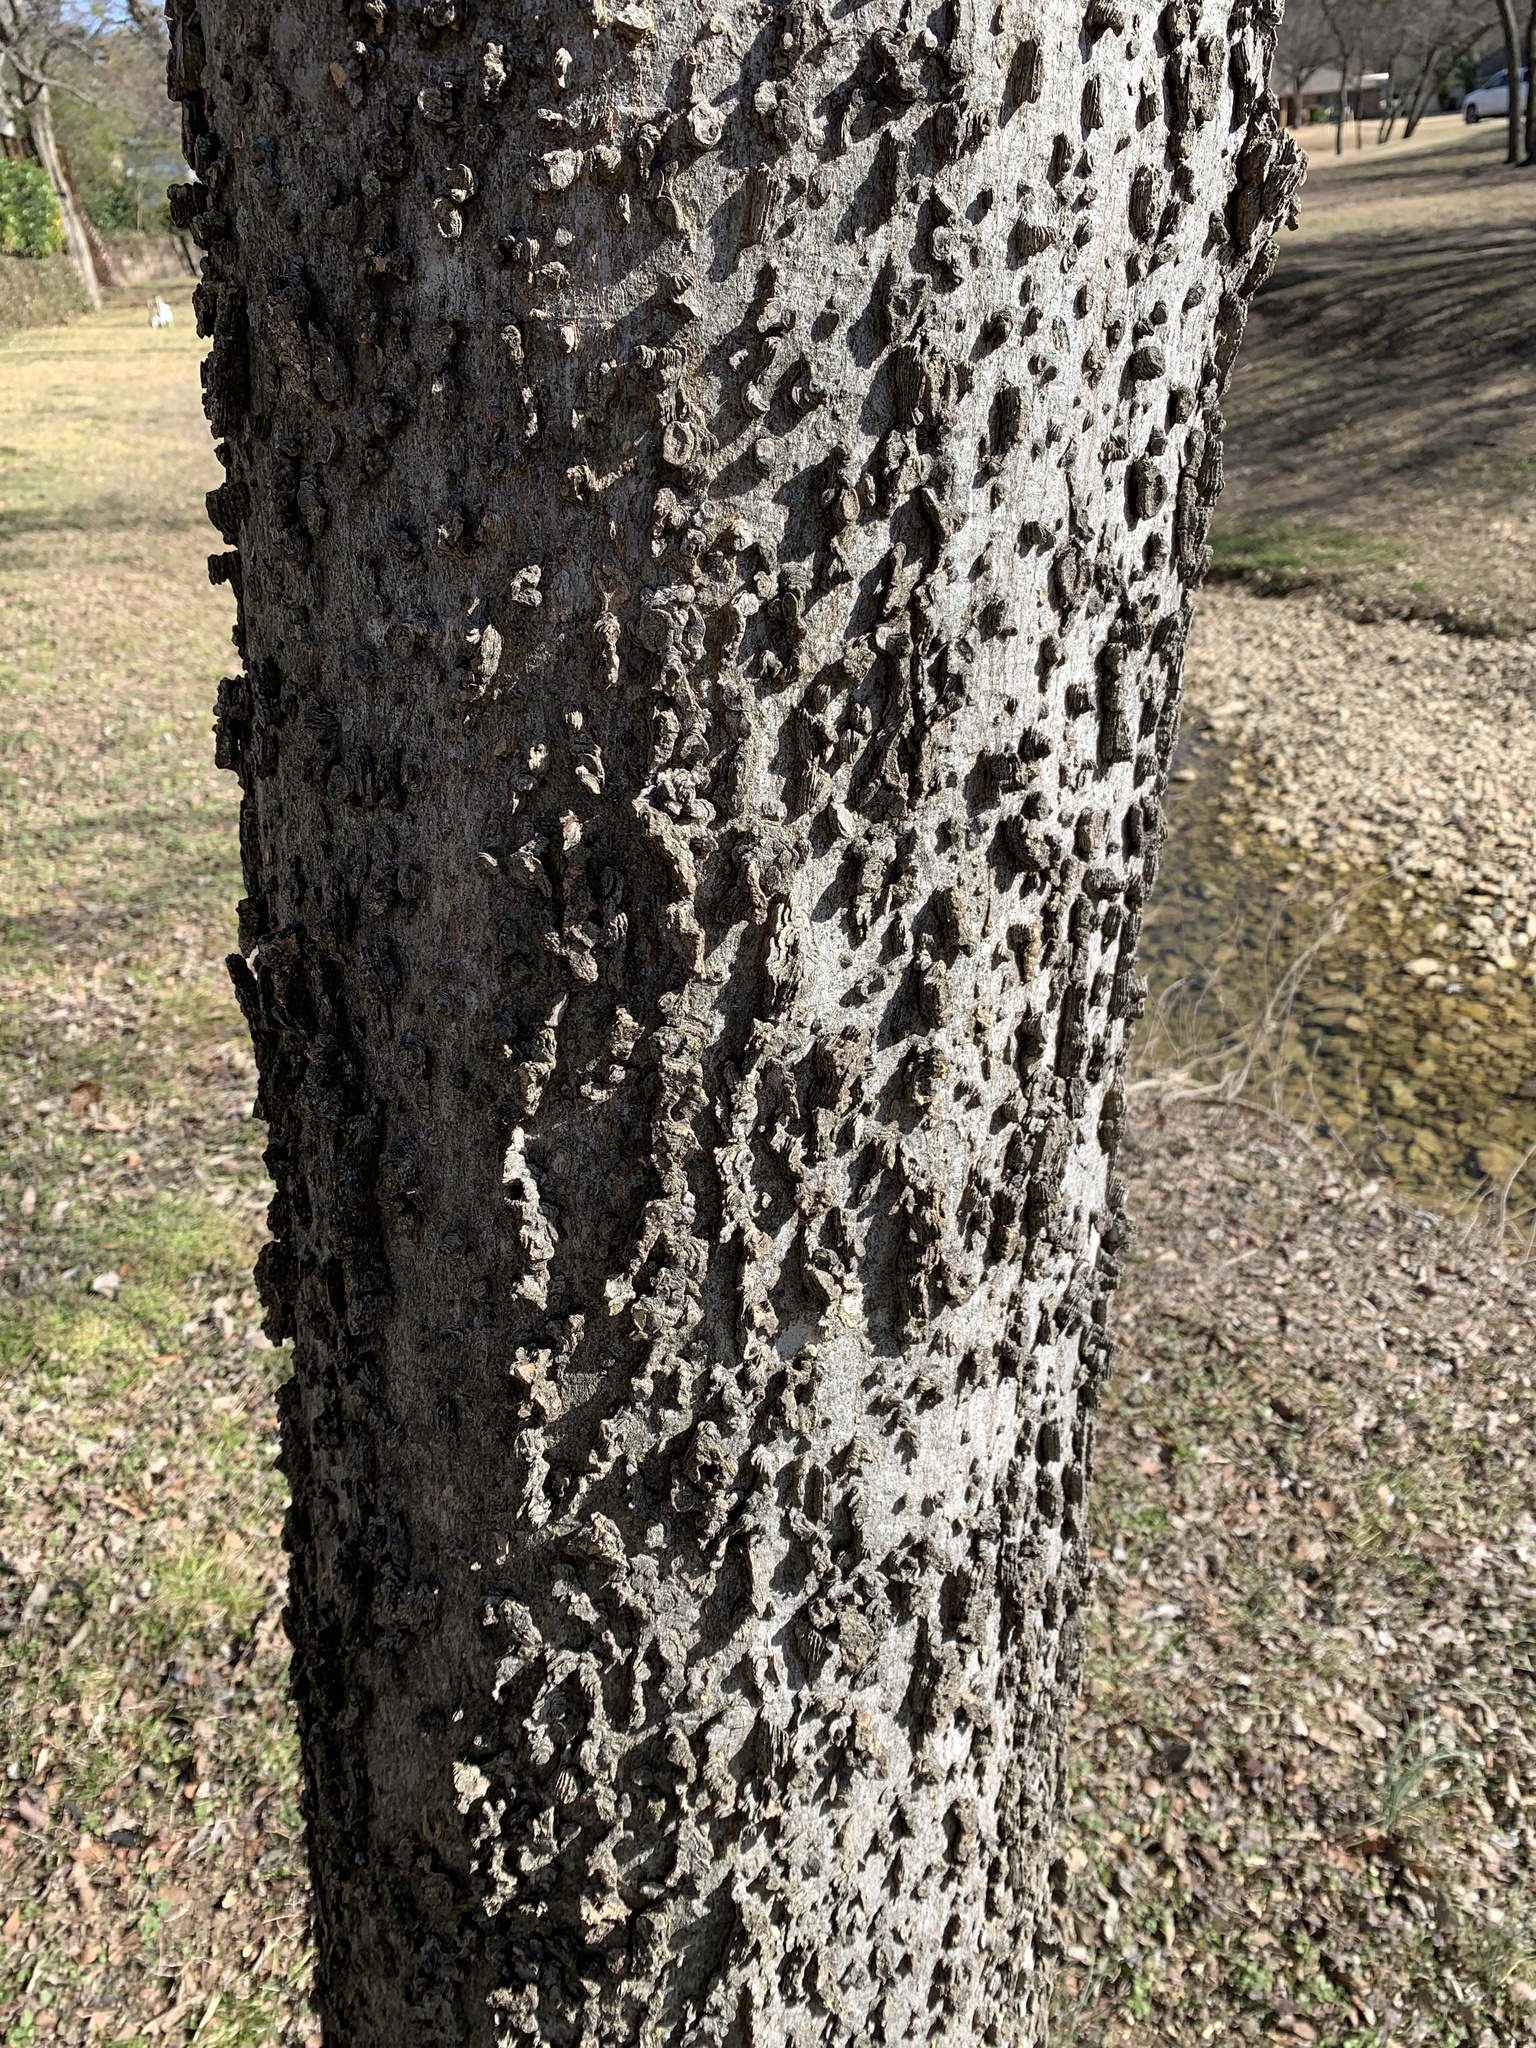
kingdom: Plantae
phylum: Tracheophyta
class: Magnoliopsida
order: Rosales
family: Cannabaceae
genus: Celtis
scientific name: Celtis laevigata
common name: Sugarberry
